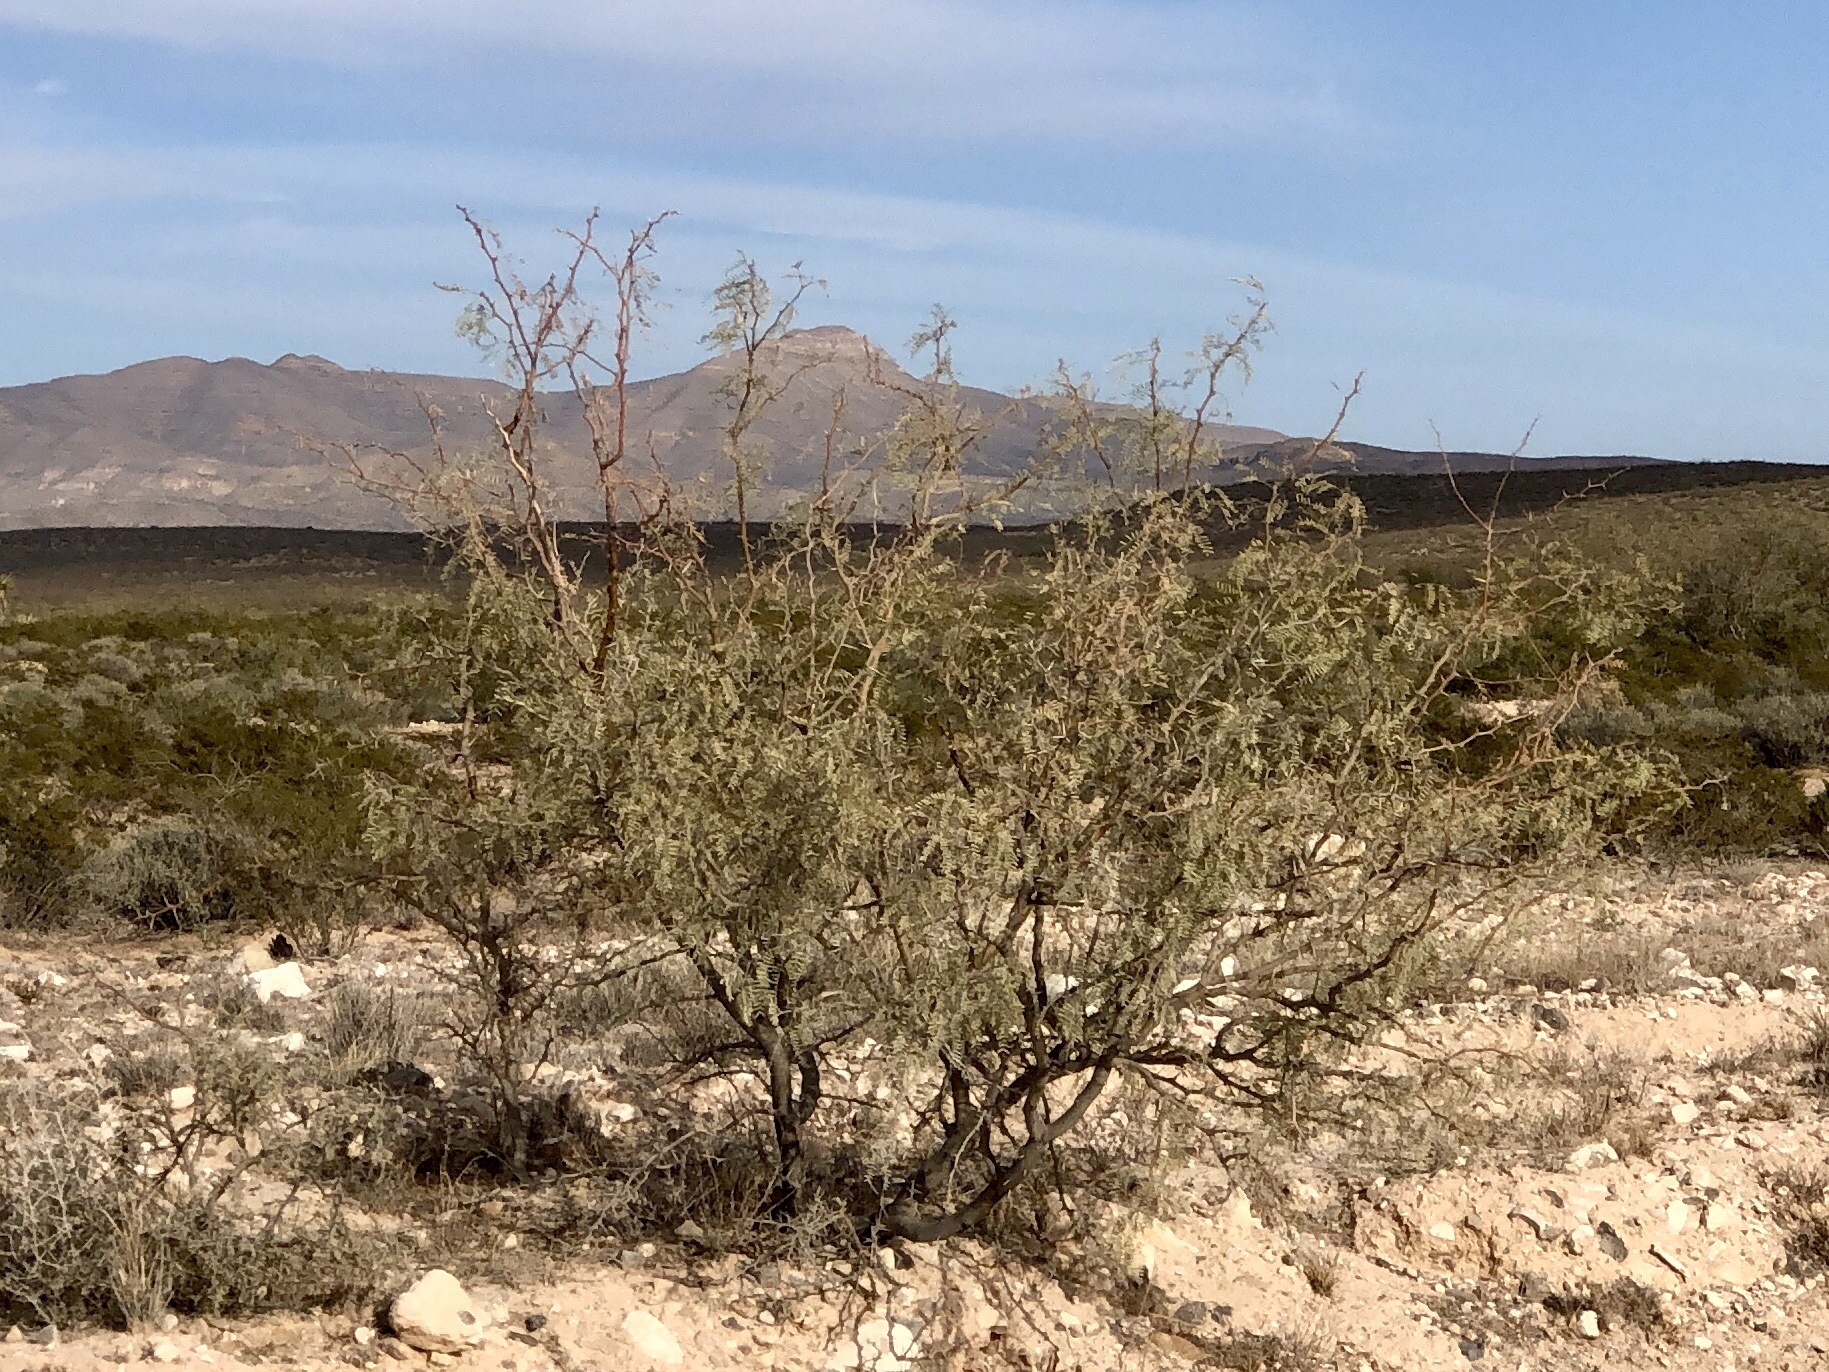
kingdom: Plantae
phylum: Tracheophyta
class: Magnoliopsida
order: Fabales
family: Fabaceae
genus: Prosopis
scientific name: Prosopis glandulosa
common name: Honey mesquite
